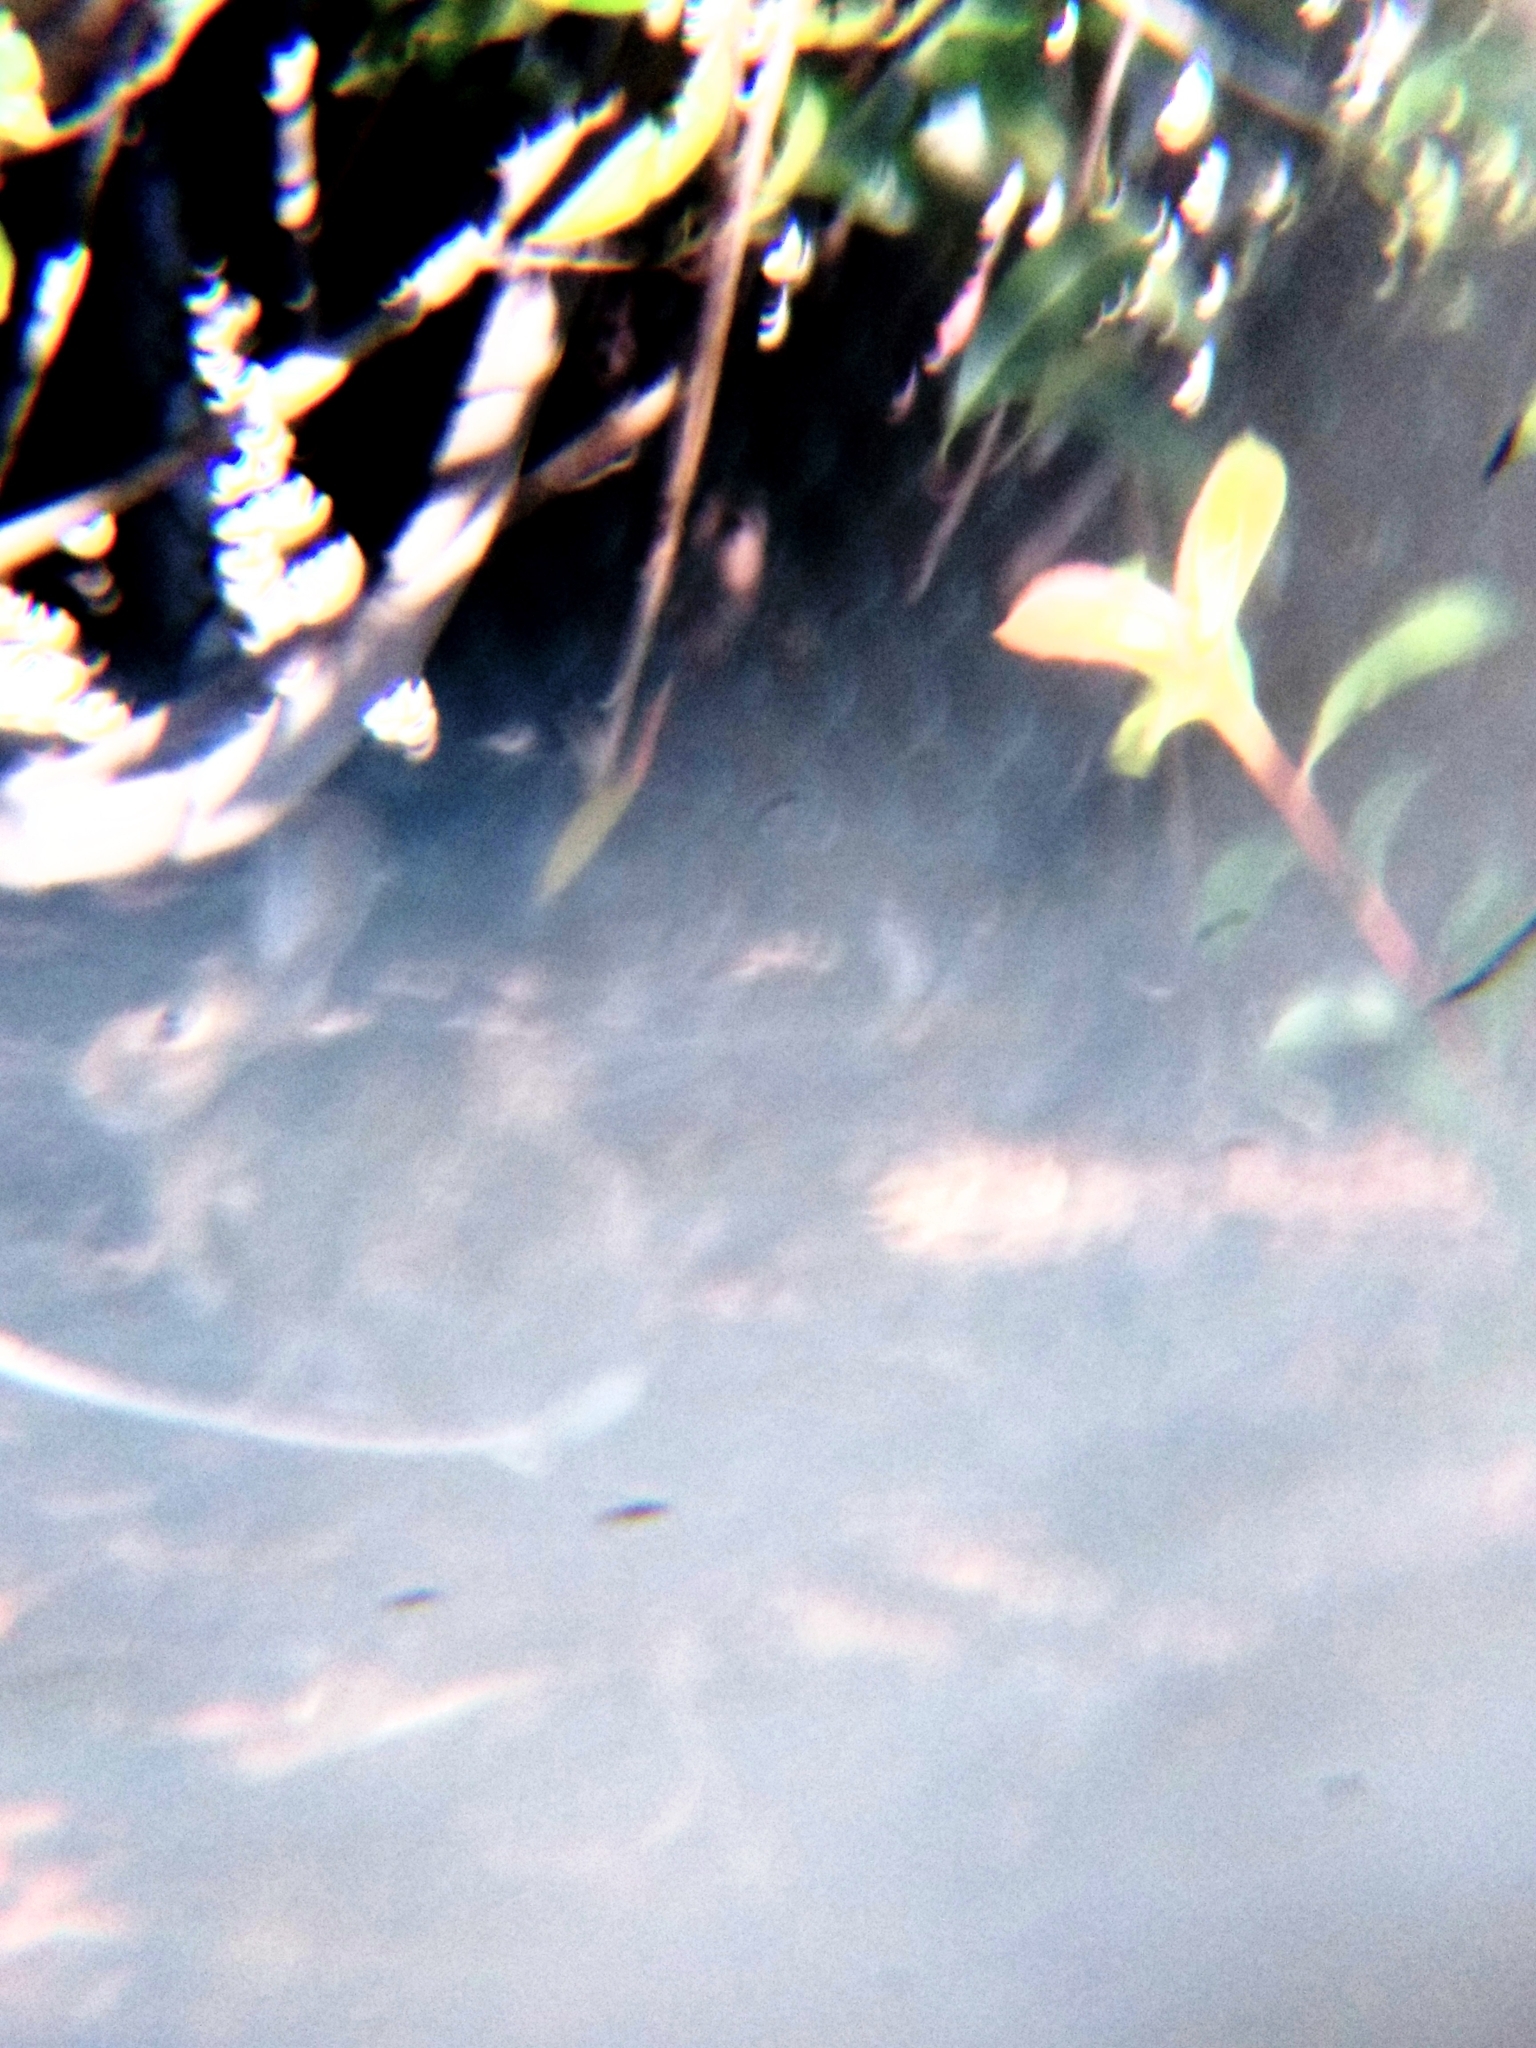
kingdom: Animalia
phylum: Chordata
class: Mammalia
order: Lagomorpha
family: Leporidae
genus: Sylvilagus
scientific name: Sylvilagus audubonii
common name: Desert cottontail
